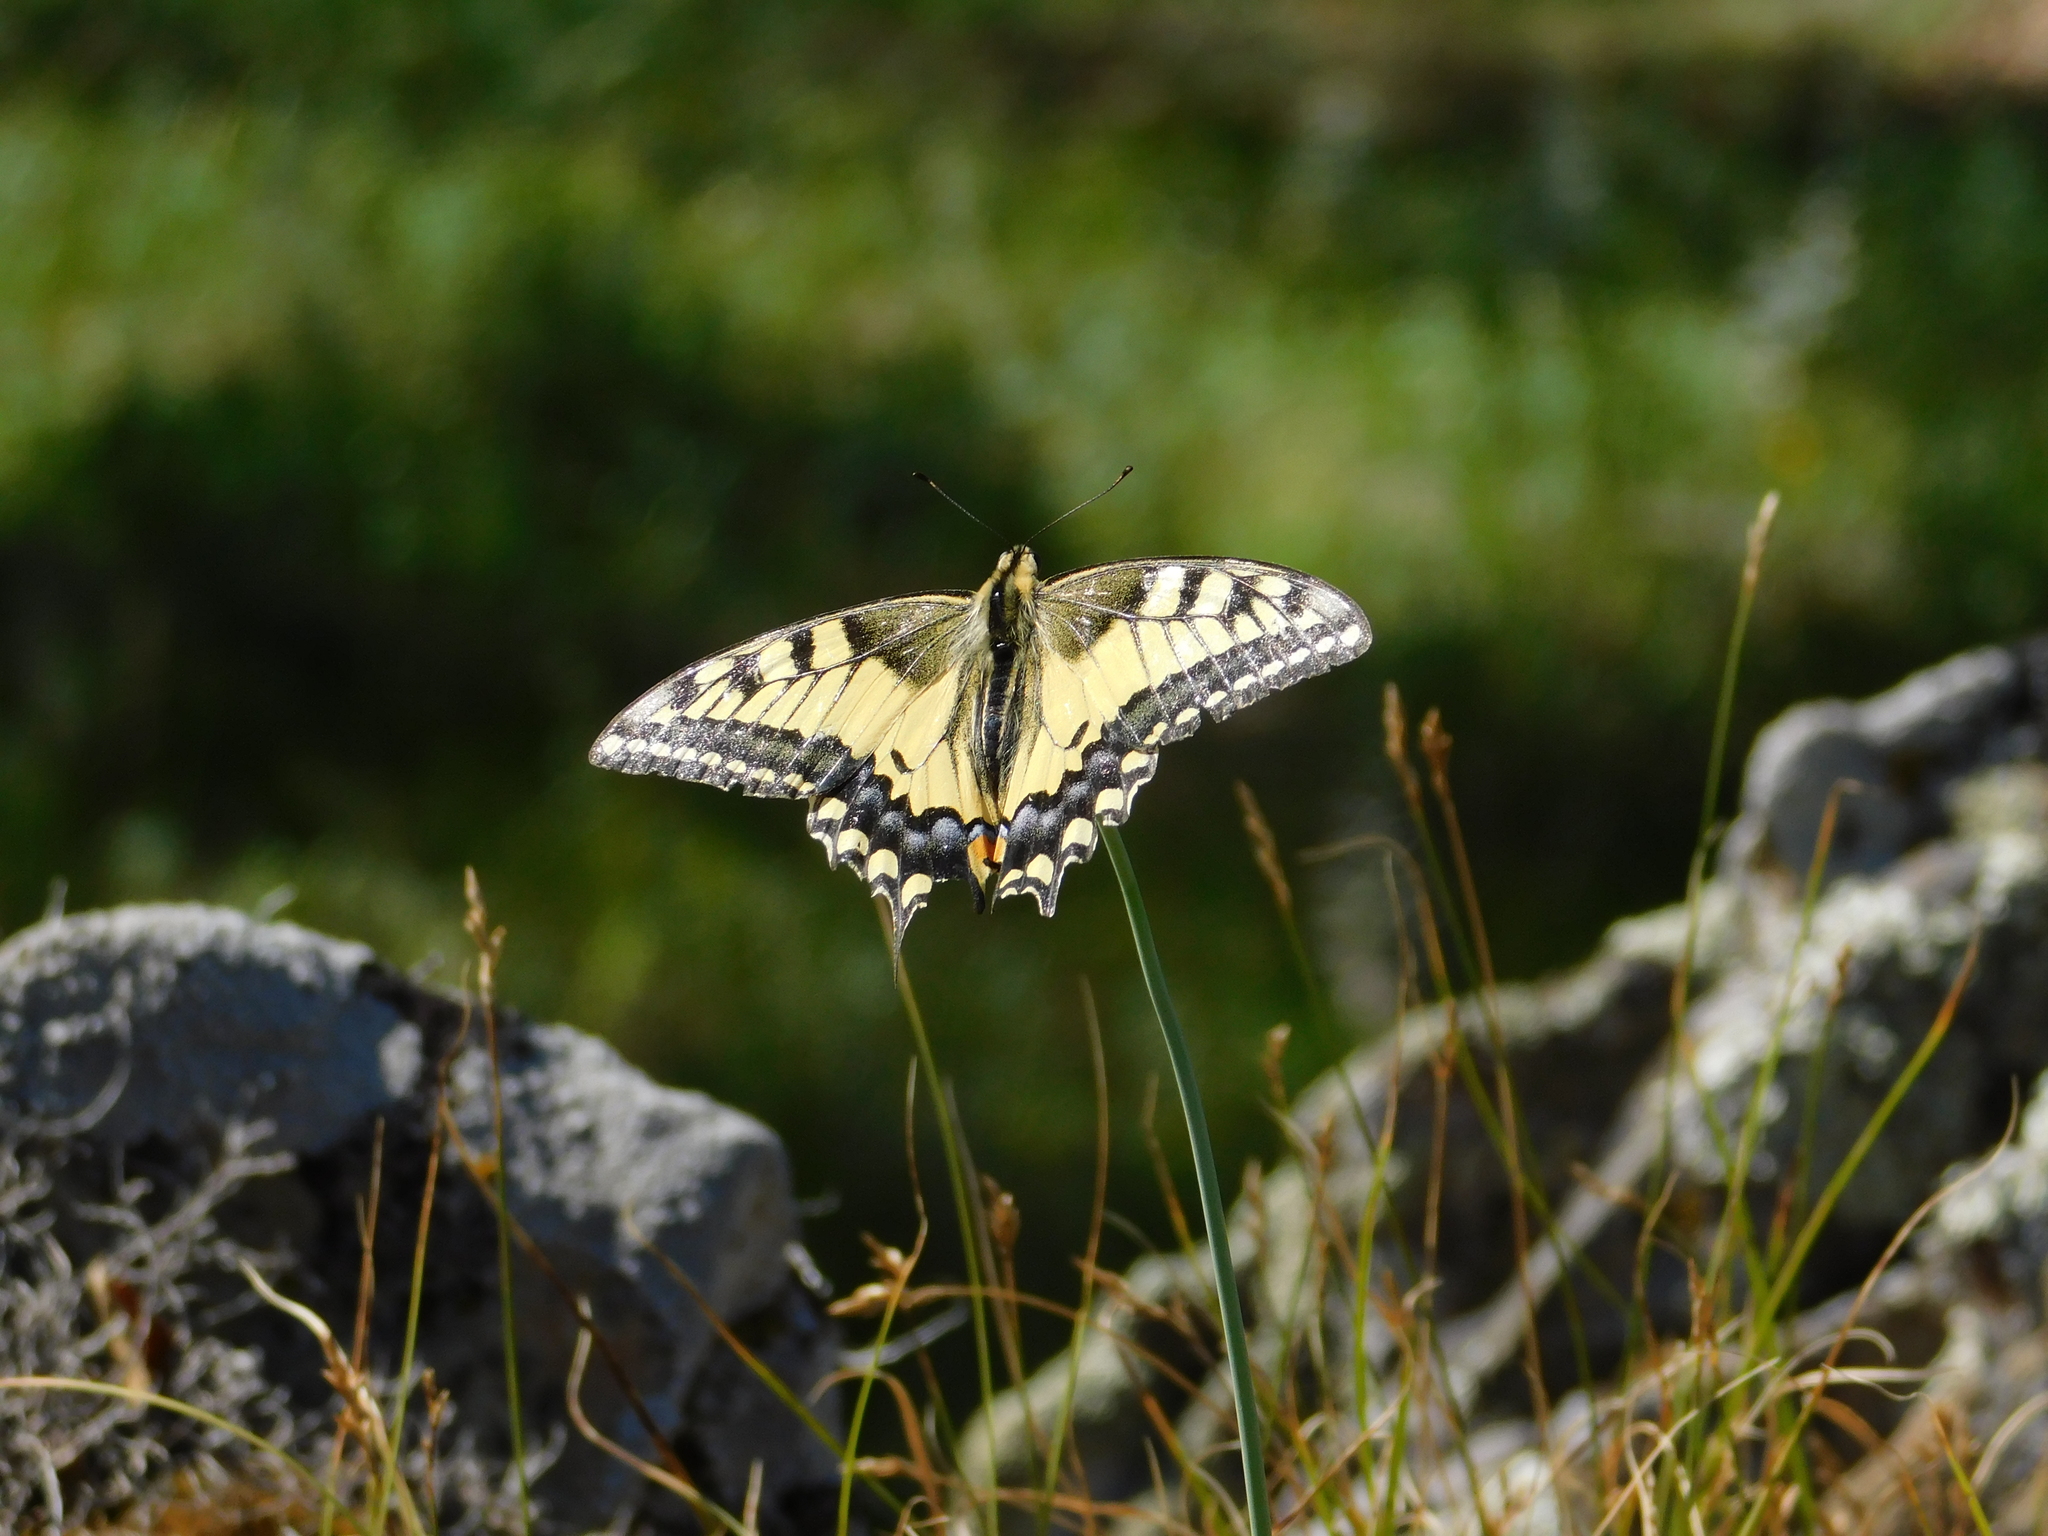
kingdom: Animalia
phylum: Arthropoda
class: Insecta
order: Lepidoptera
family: Papilionidae
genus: Papilio
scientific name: Papilio machaon
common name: Swallowtail
